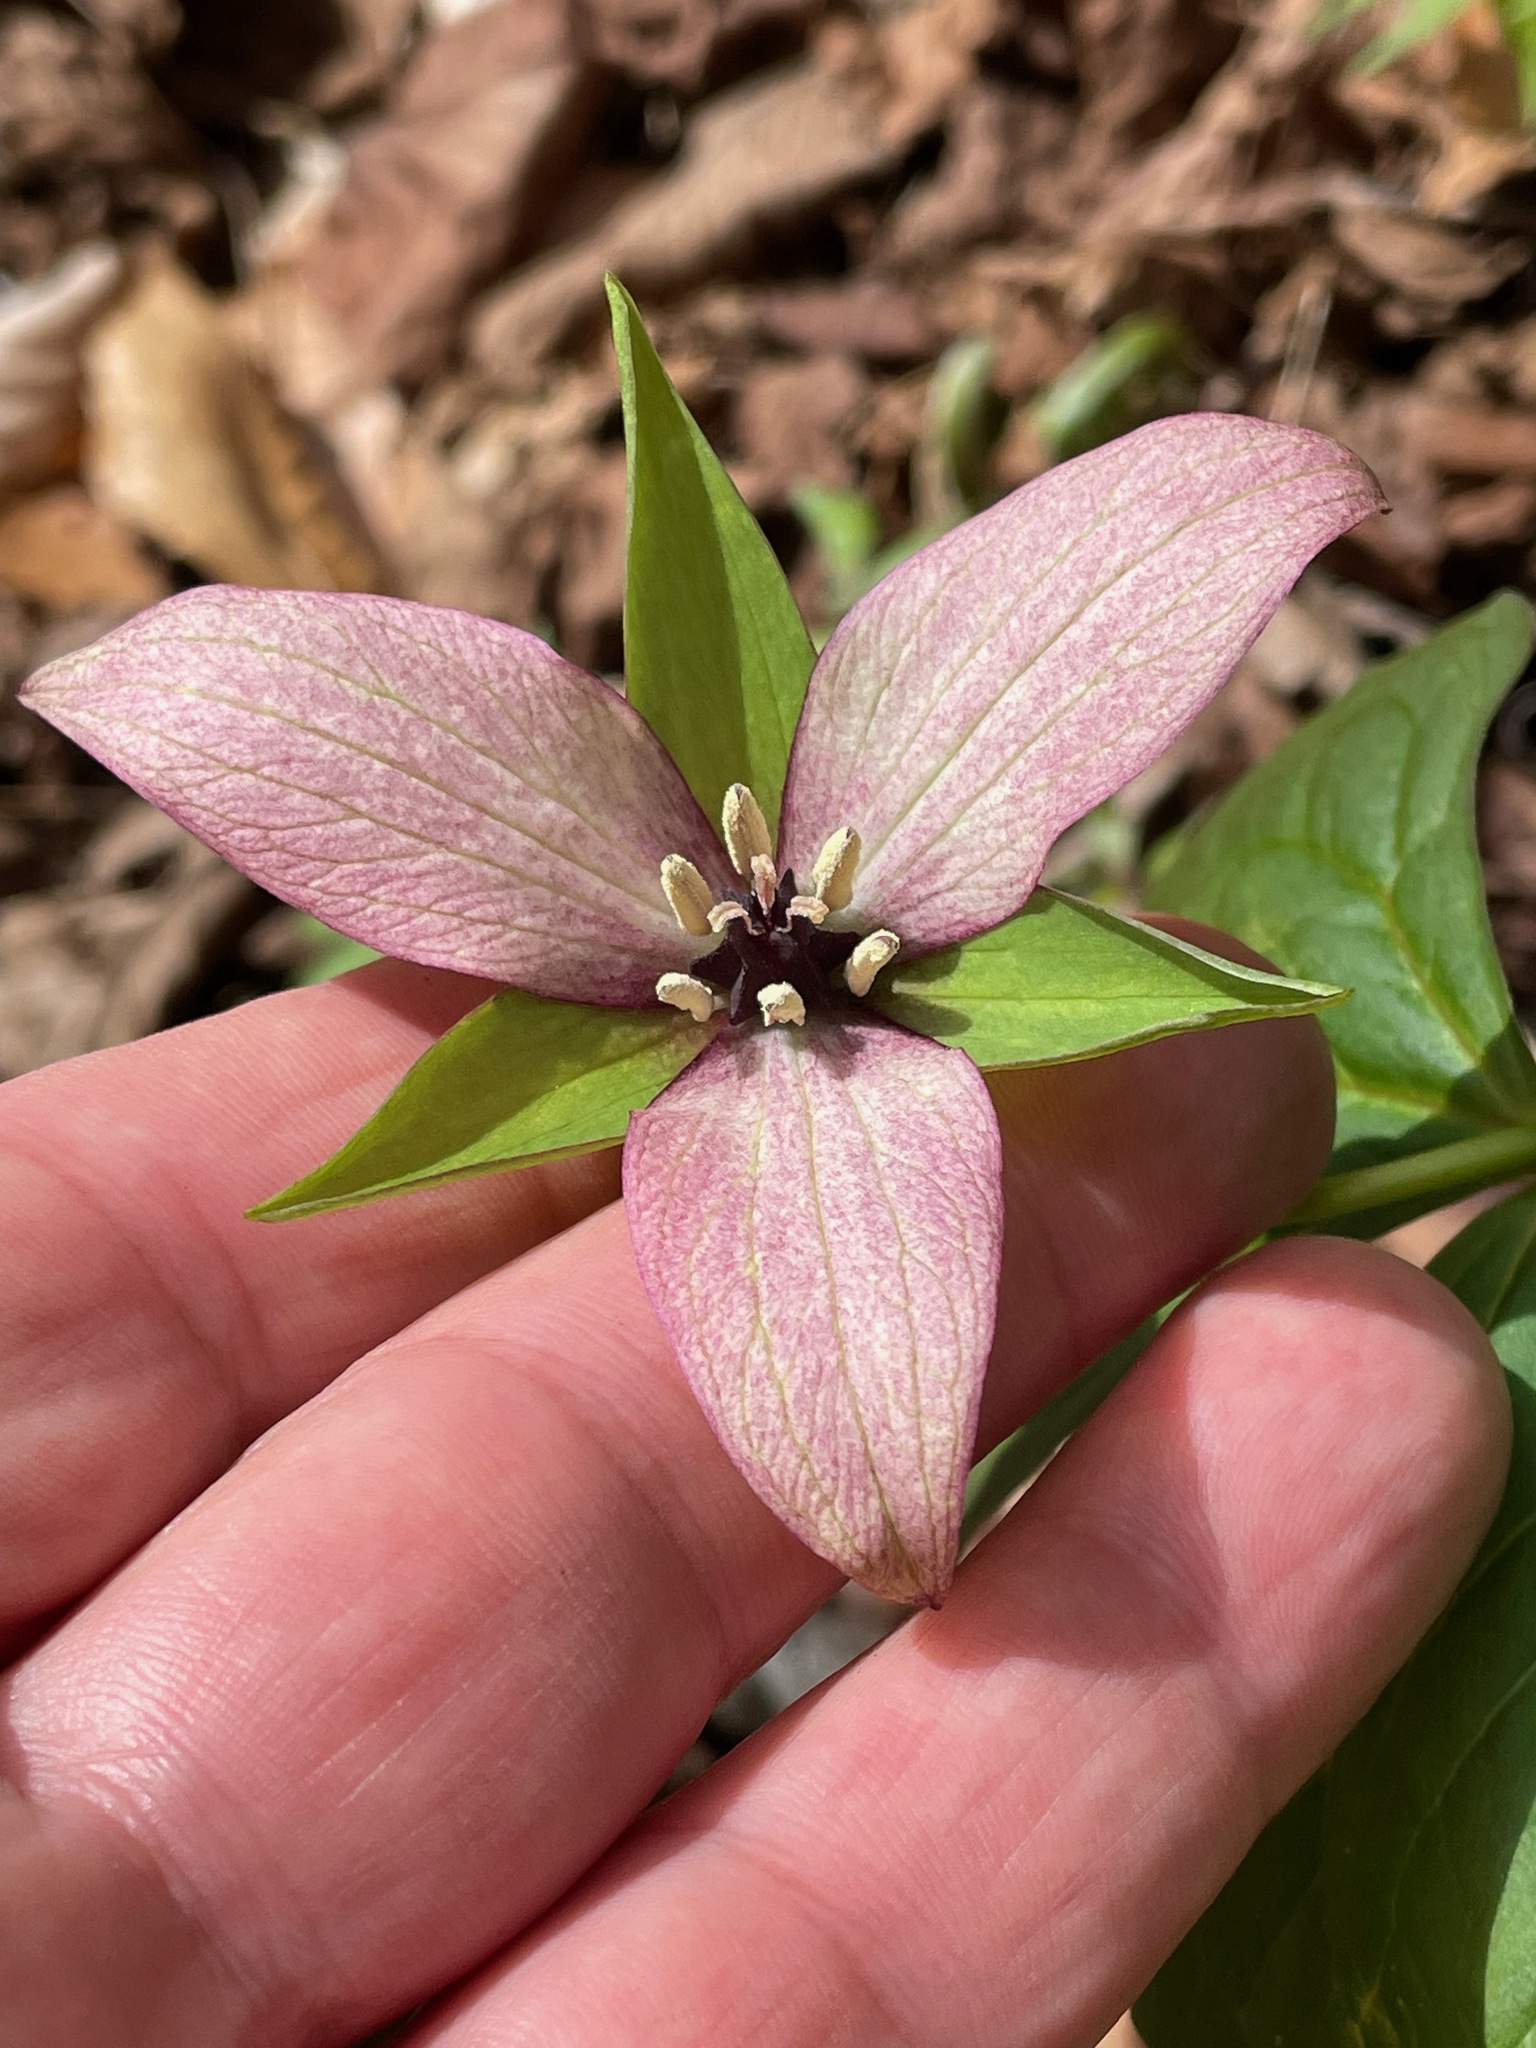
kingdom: Plantae
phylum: Tracheophyta
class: Liliopsida
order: Liliales
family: Melanthiaceae
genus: Trillium
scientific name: Trillium erectum
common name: Purple trillium
